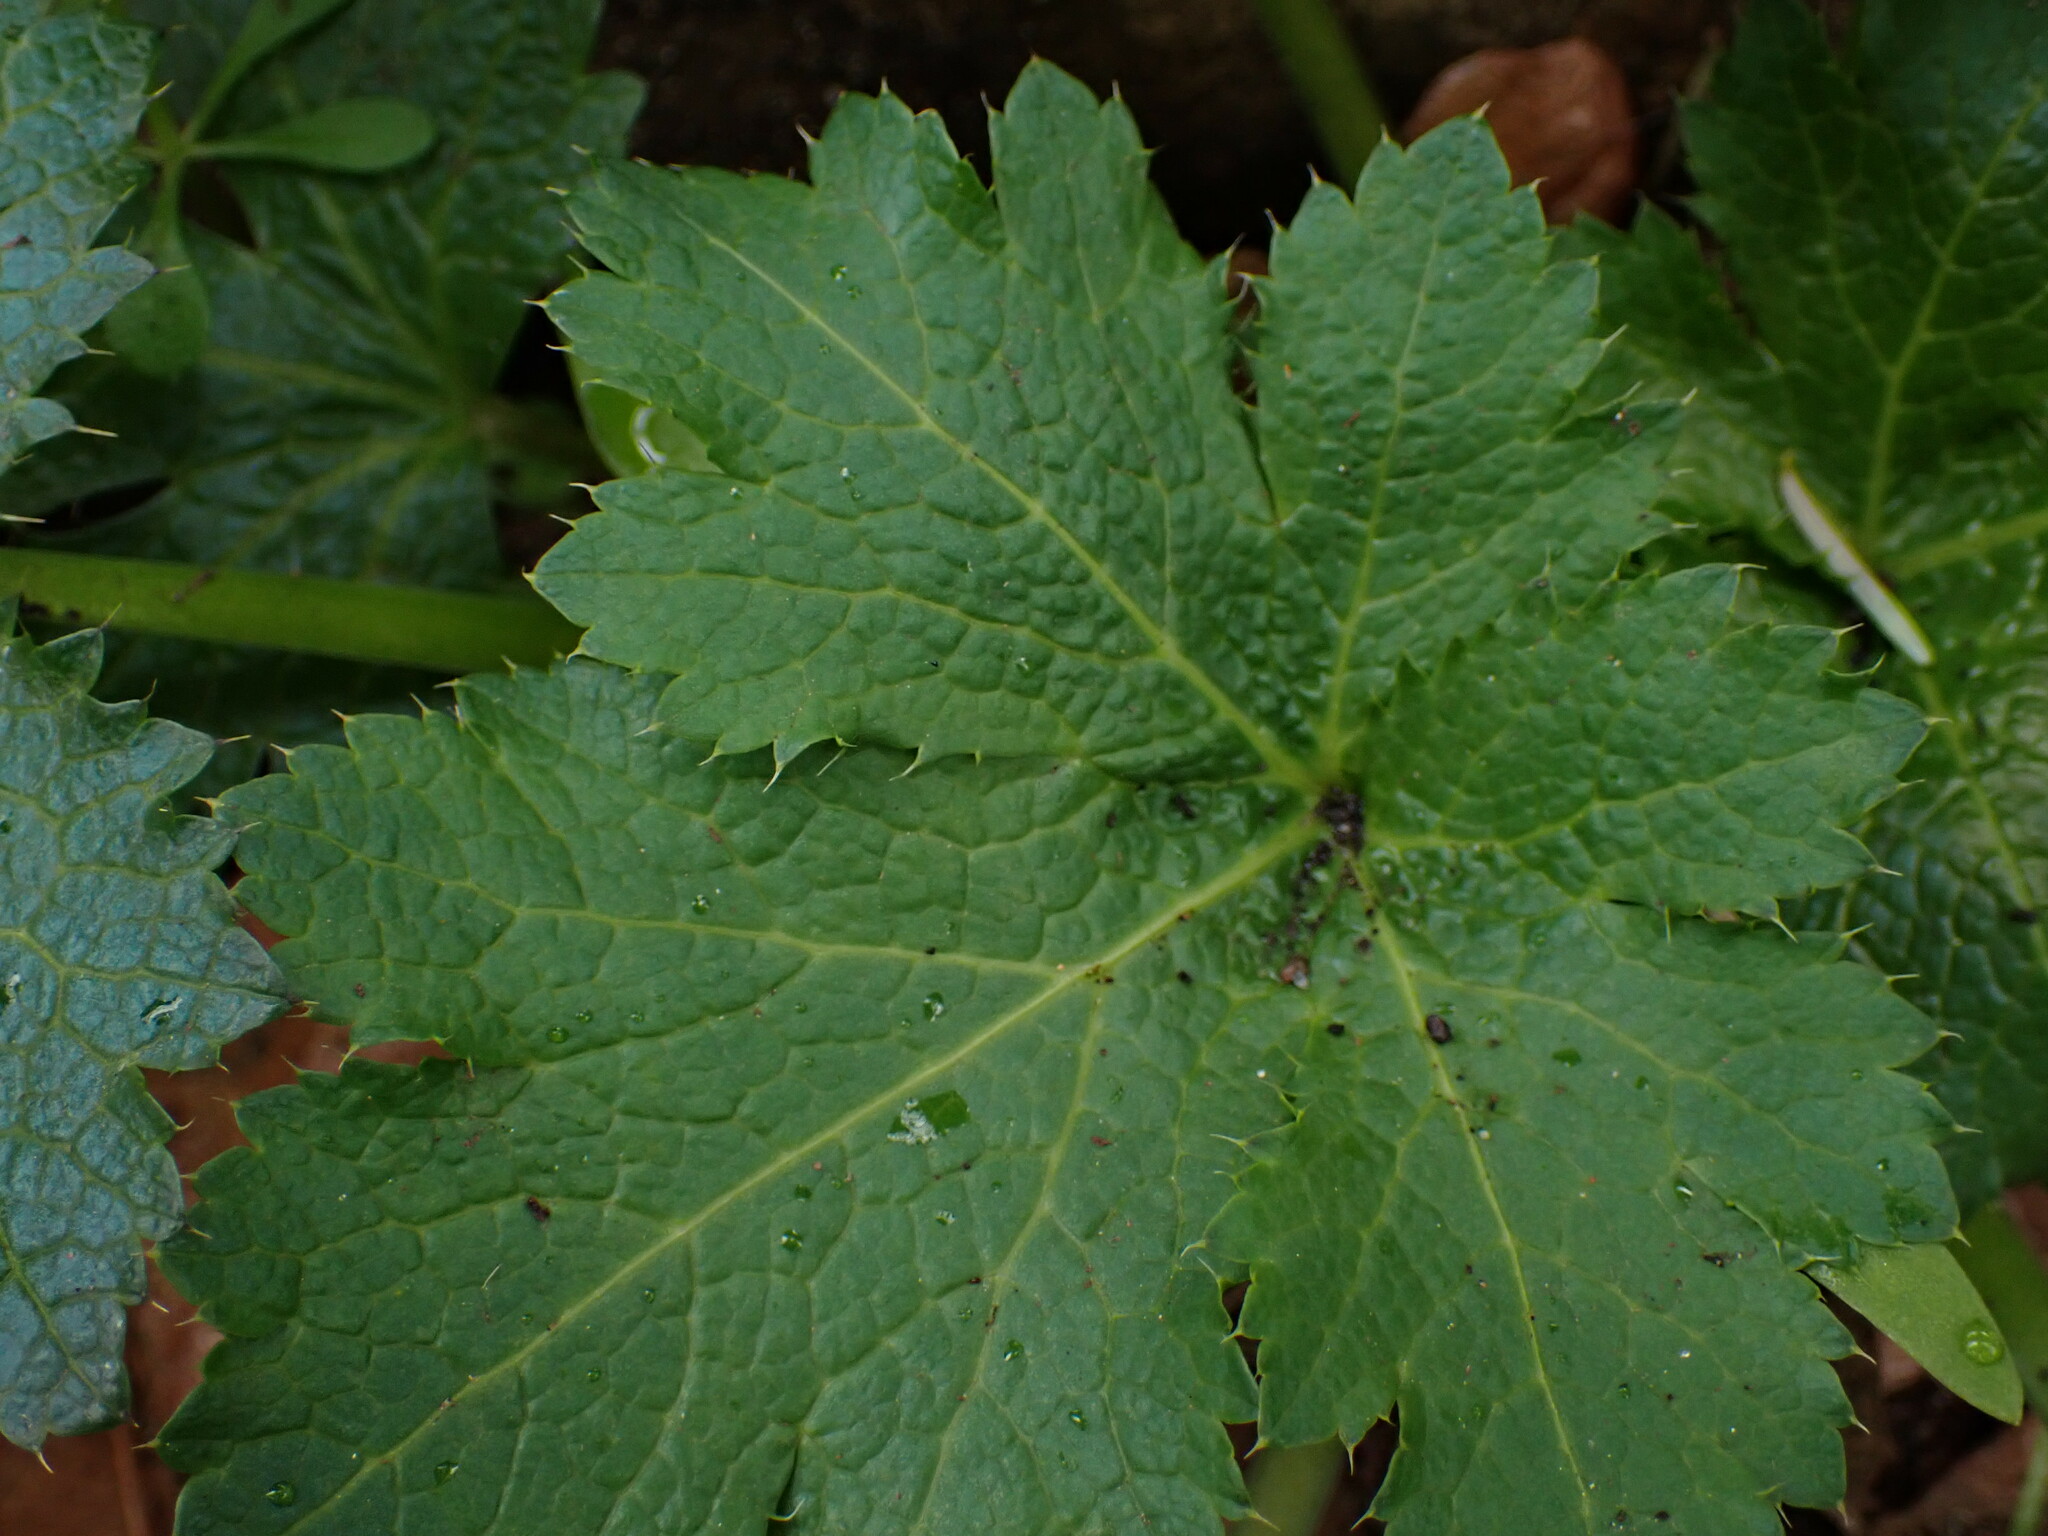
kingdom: Plantae
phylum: Tracheophyta
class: Magnoliopsida
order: Apiales
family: Apiaceae
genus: Sanicula
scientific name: Sanicula crassicaulis
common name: Western snakeroot
